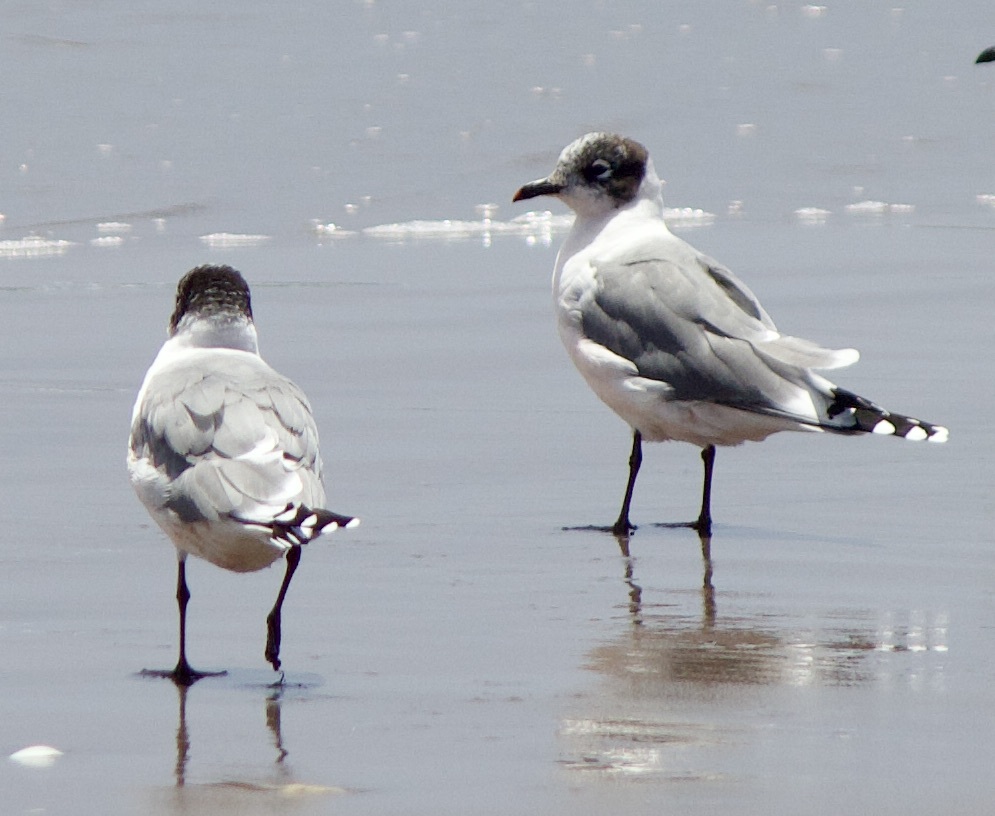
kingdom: Animalia
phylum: Chordata
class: Aves
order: Charadriiformes
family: Laridae
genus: Leucophaeus
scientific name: Leucophaeus pipixcan
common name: Franklin's gull
